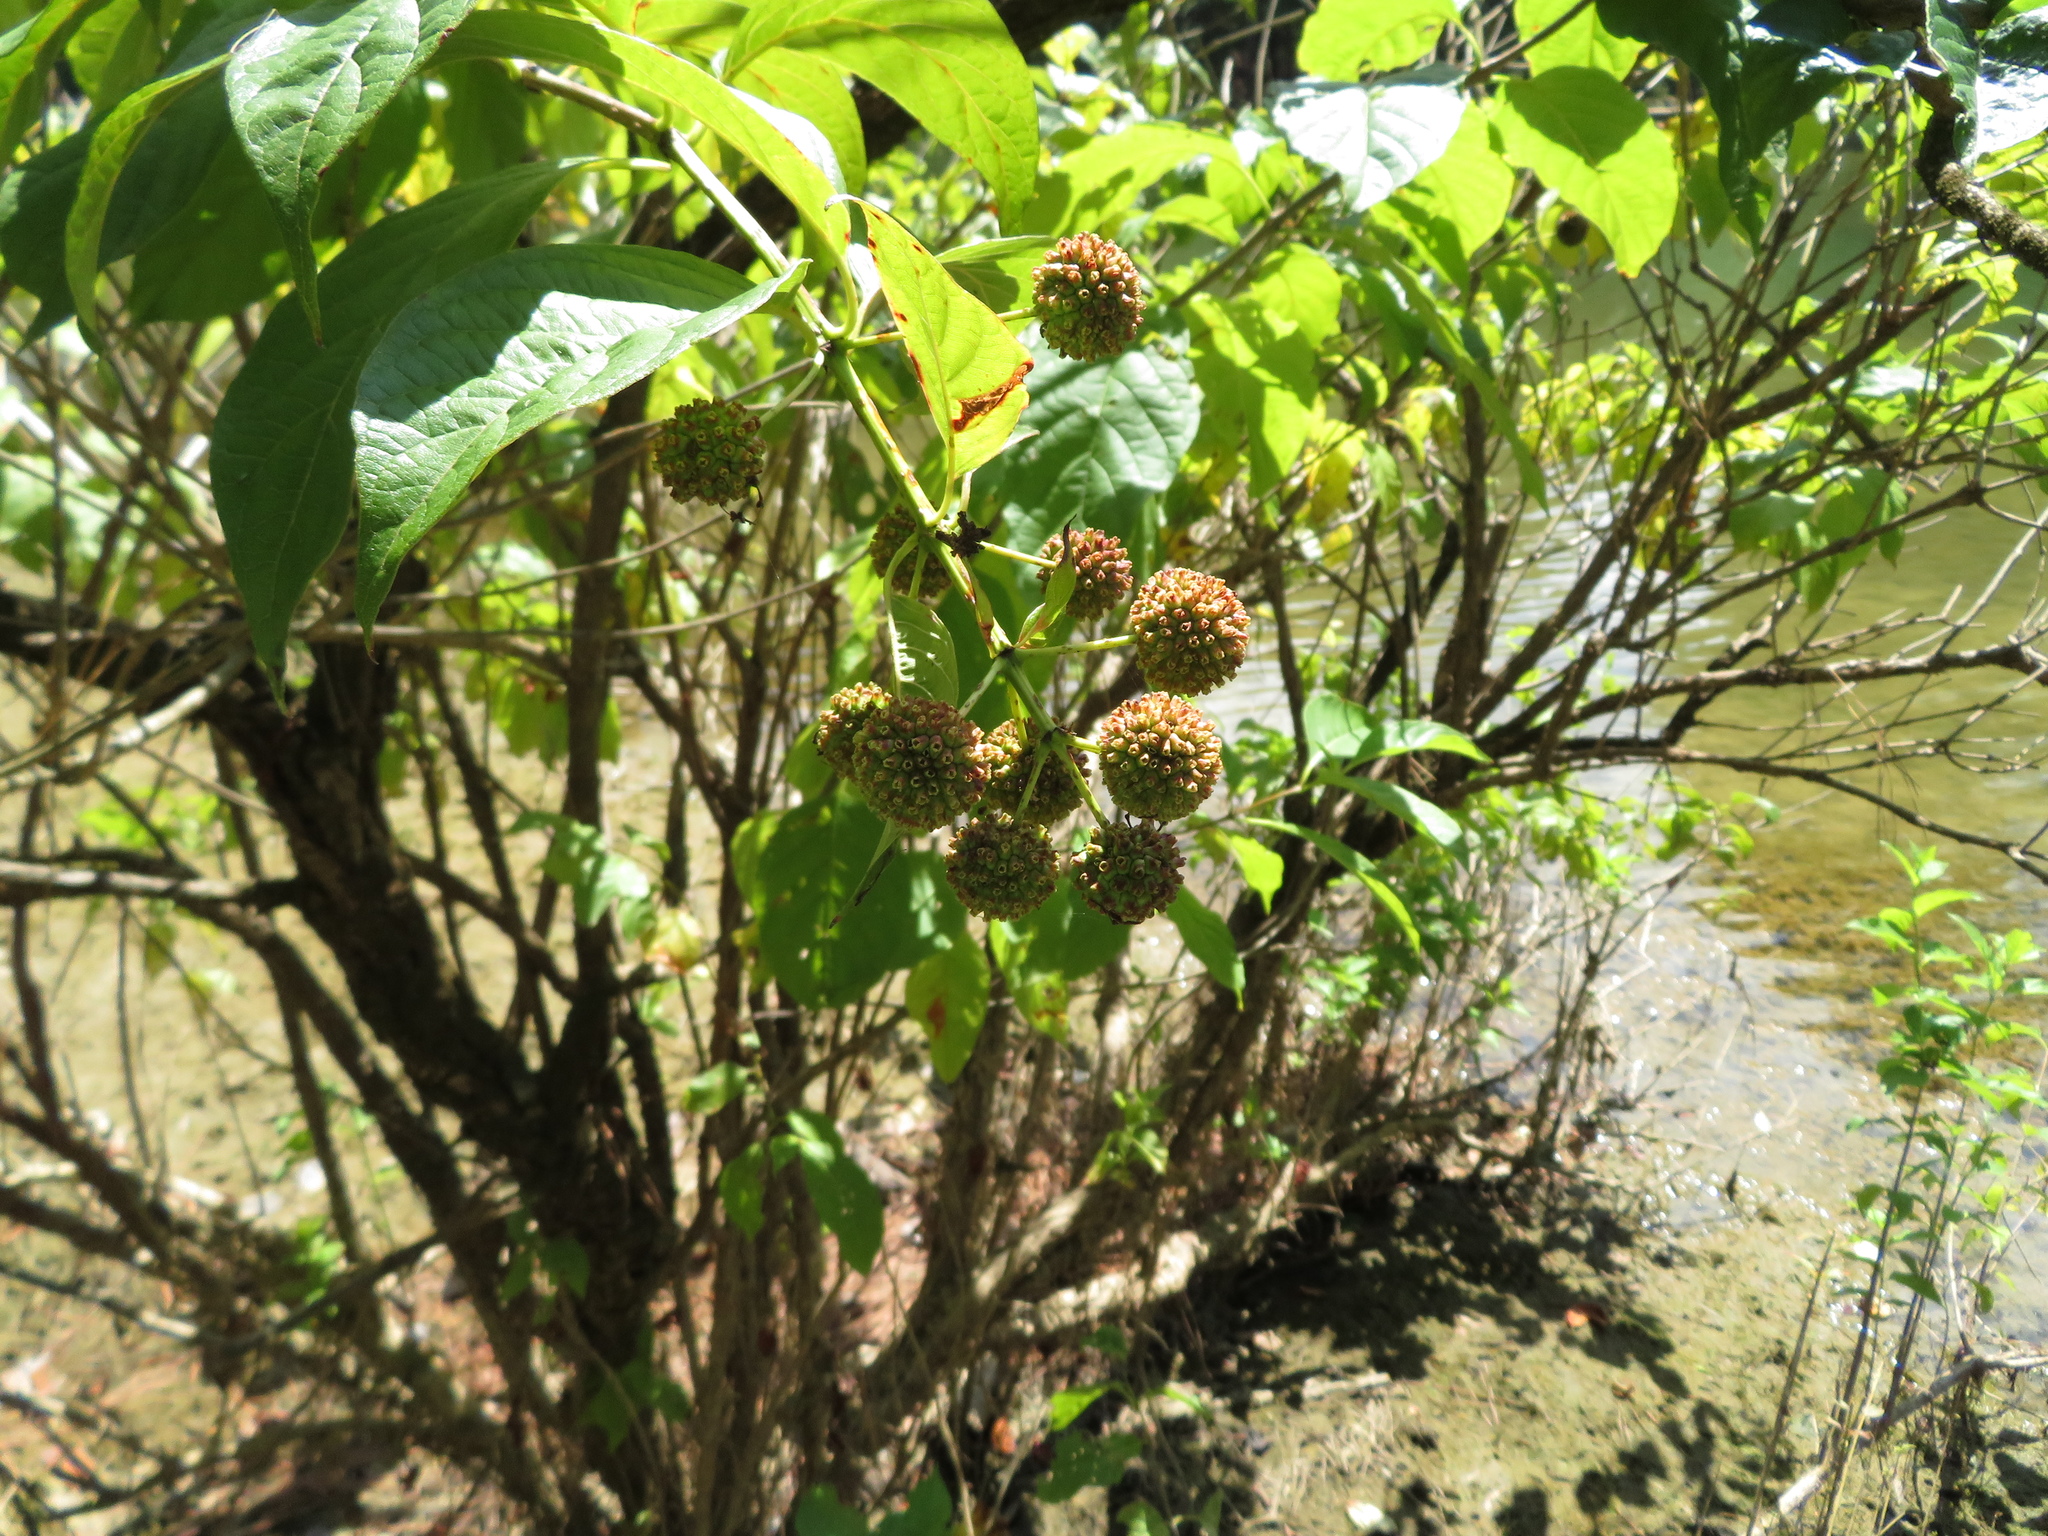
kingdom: Plantae
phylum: Tracheophyta
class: Magnoliopsida
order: Gentianales
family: Rubiaceae
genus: Cephalanthus
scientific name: Cephalanthus occidentalis
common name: Button-willow
